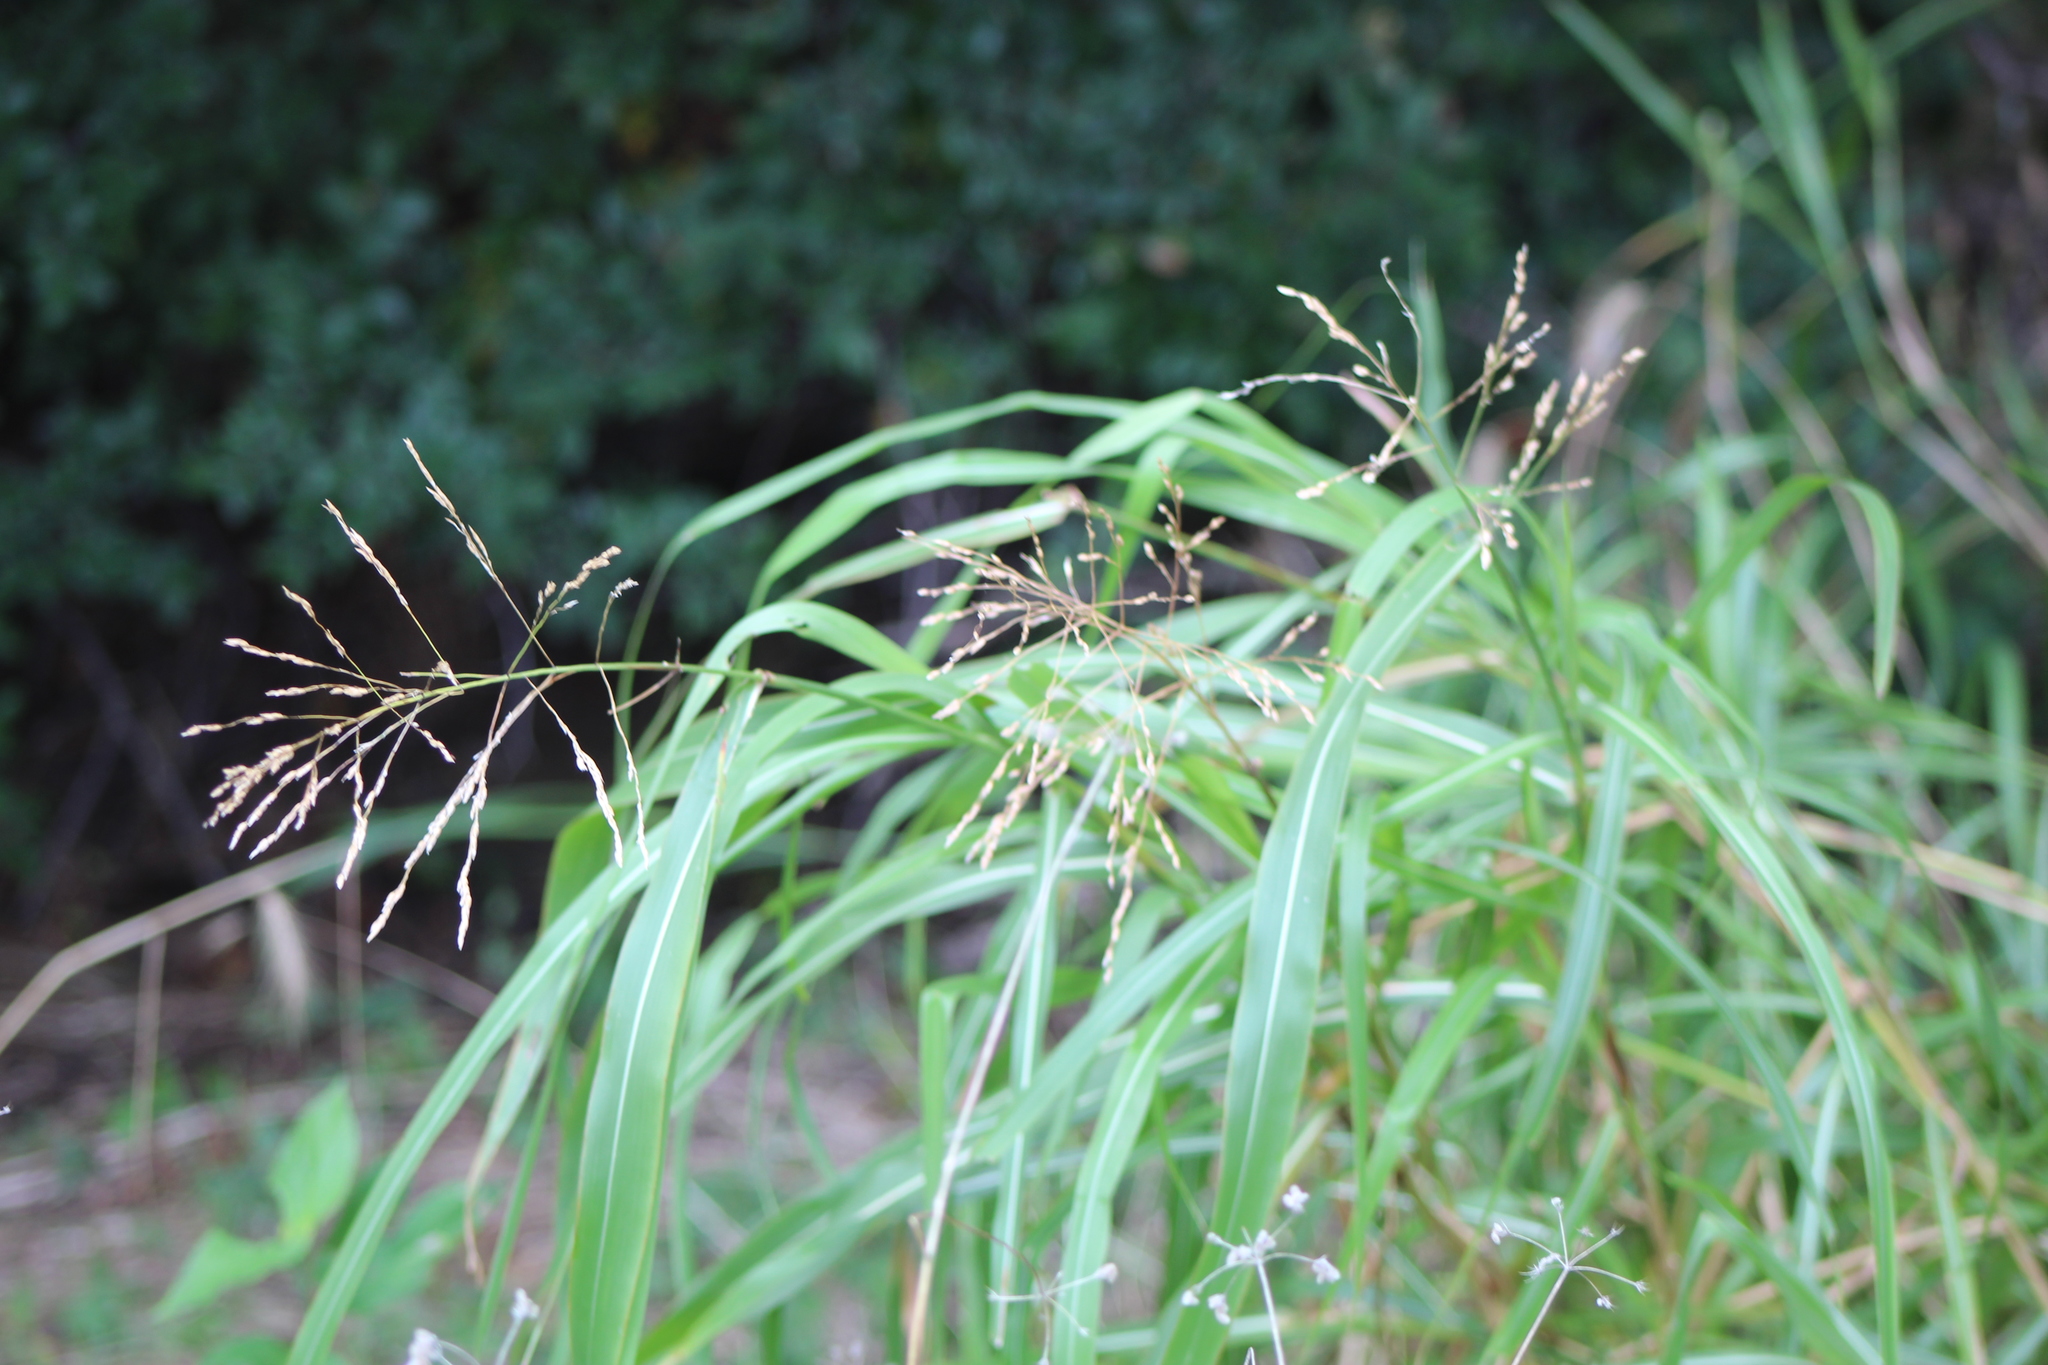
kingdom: Plantae
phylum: Tracheophyta
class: Liliopsida
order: Poales
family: Poaceae
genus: Sorghum
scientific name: Sorghum halepense
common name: Johnson-grass
